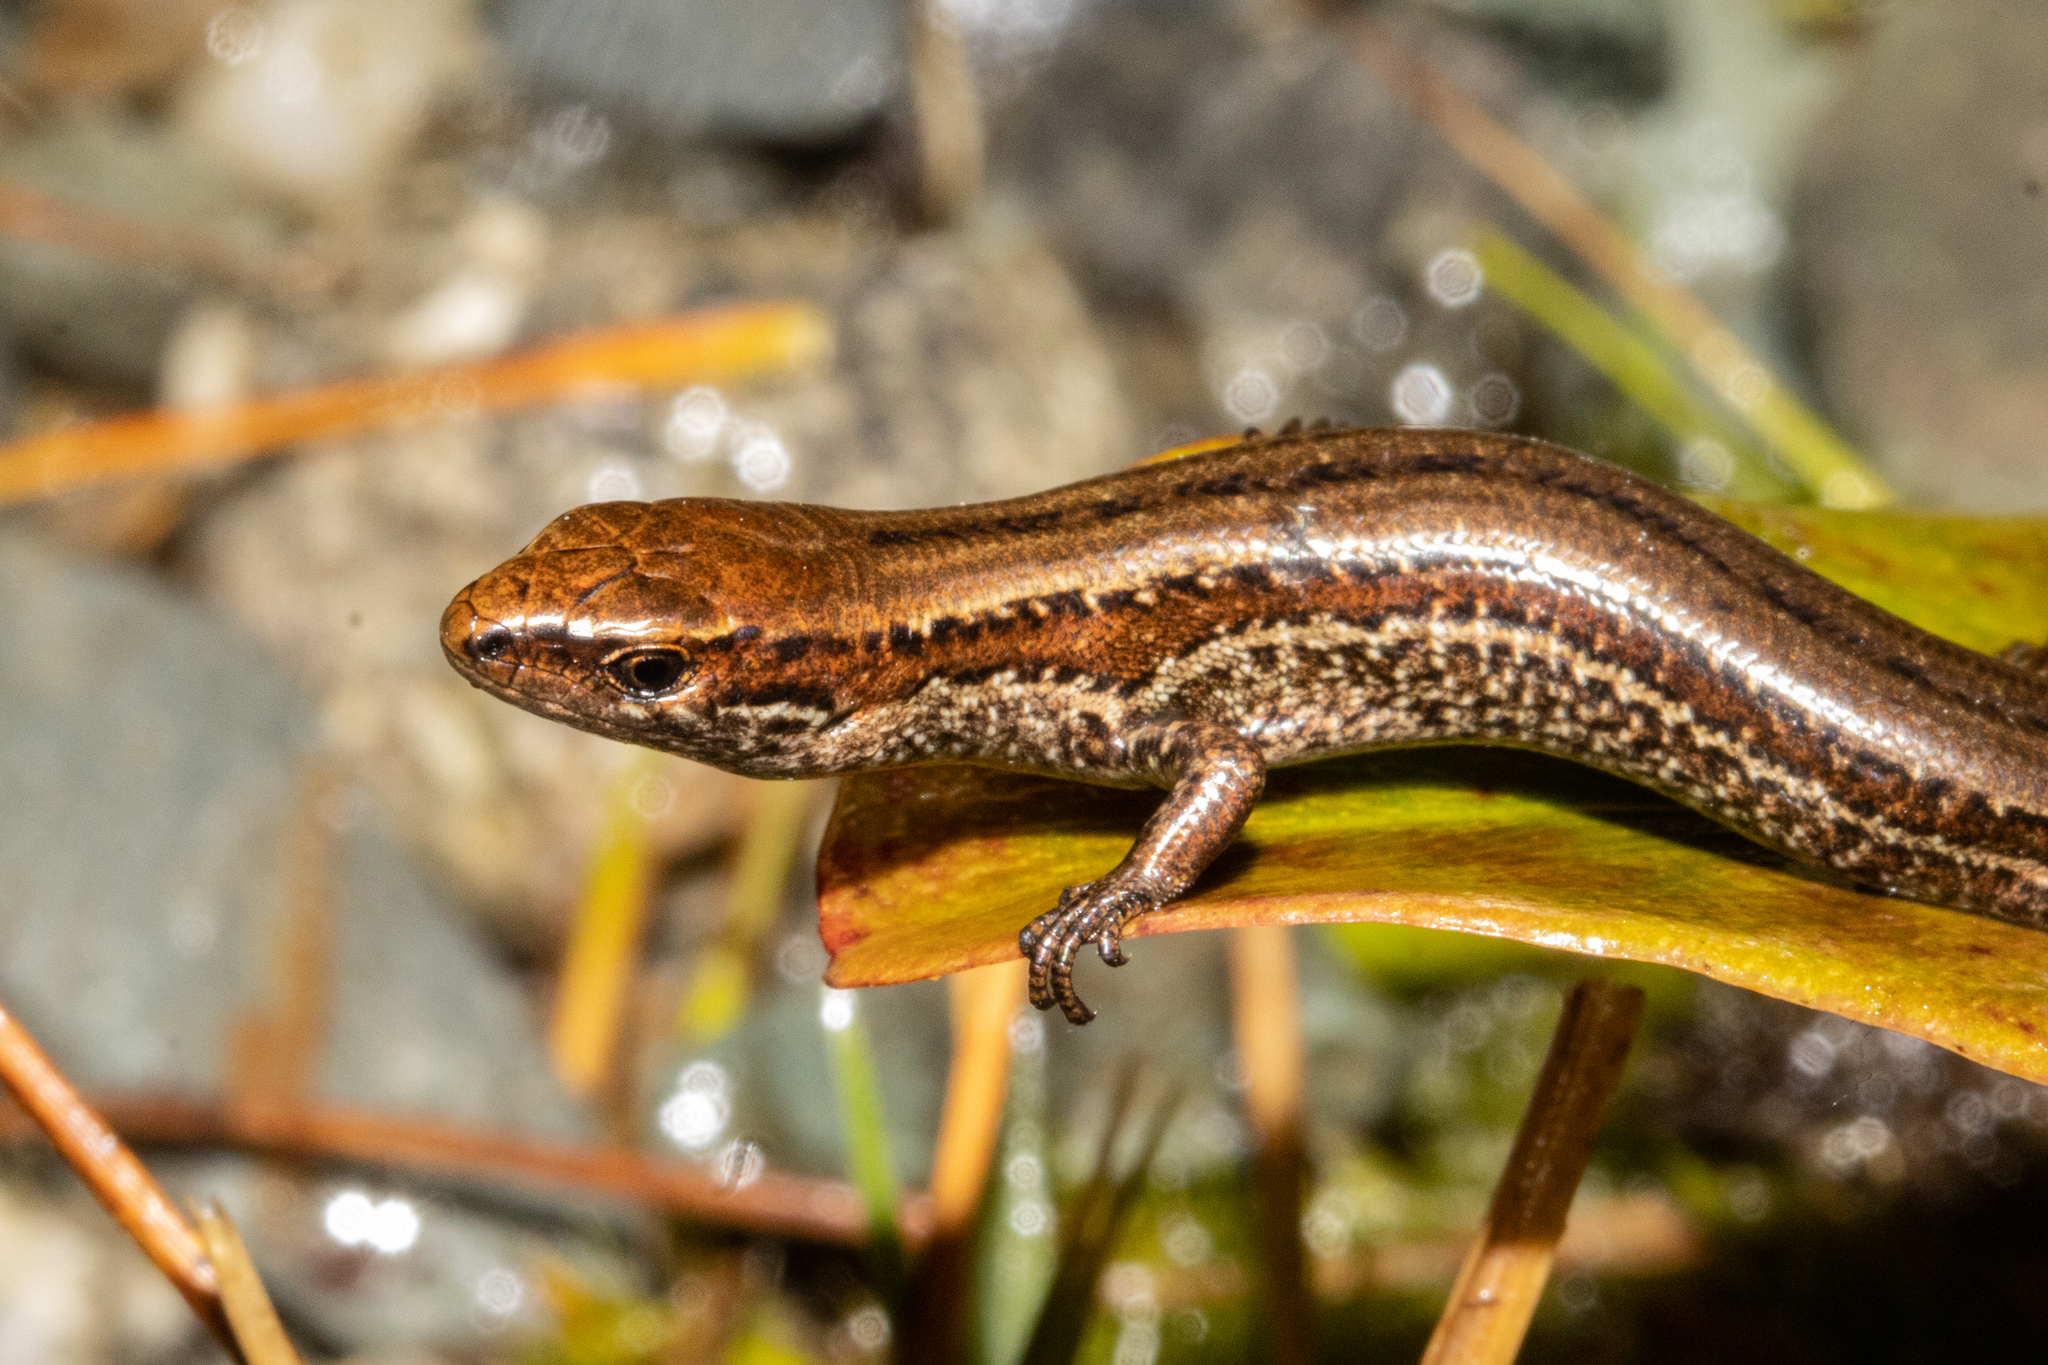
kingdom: Animalia
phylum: Chordata
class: Squamata
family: Scincidae
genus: Oligosoma
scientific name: Oligosoma newmani
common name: Newman’s speckled skink
